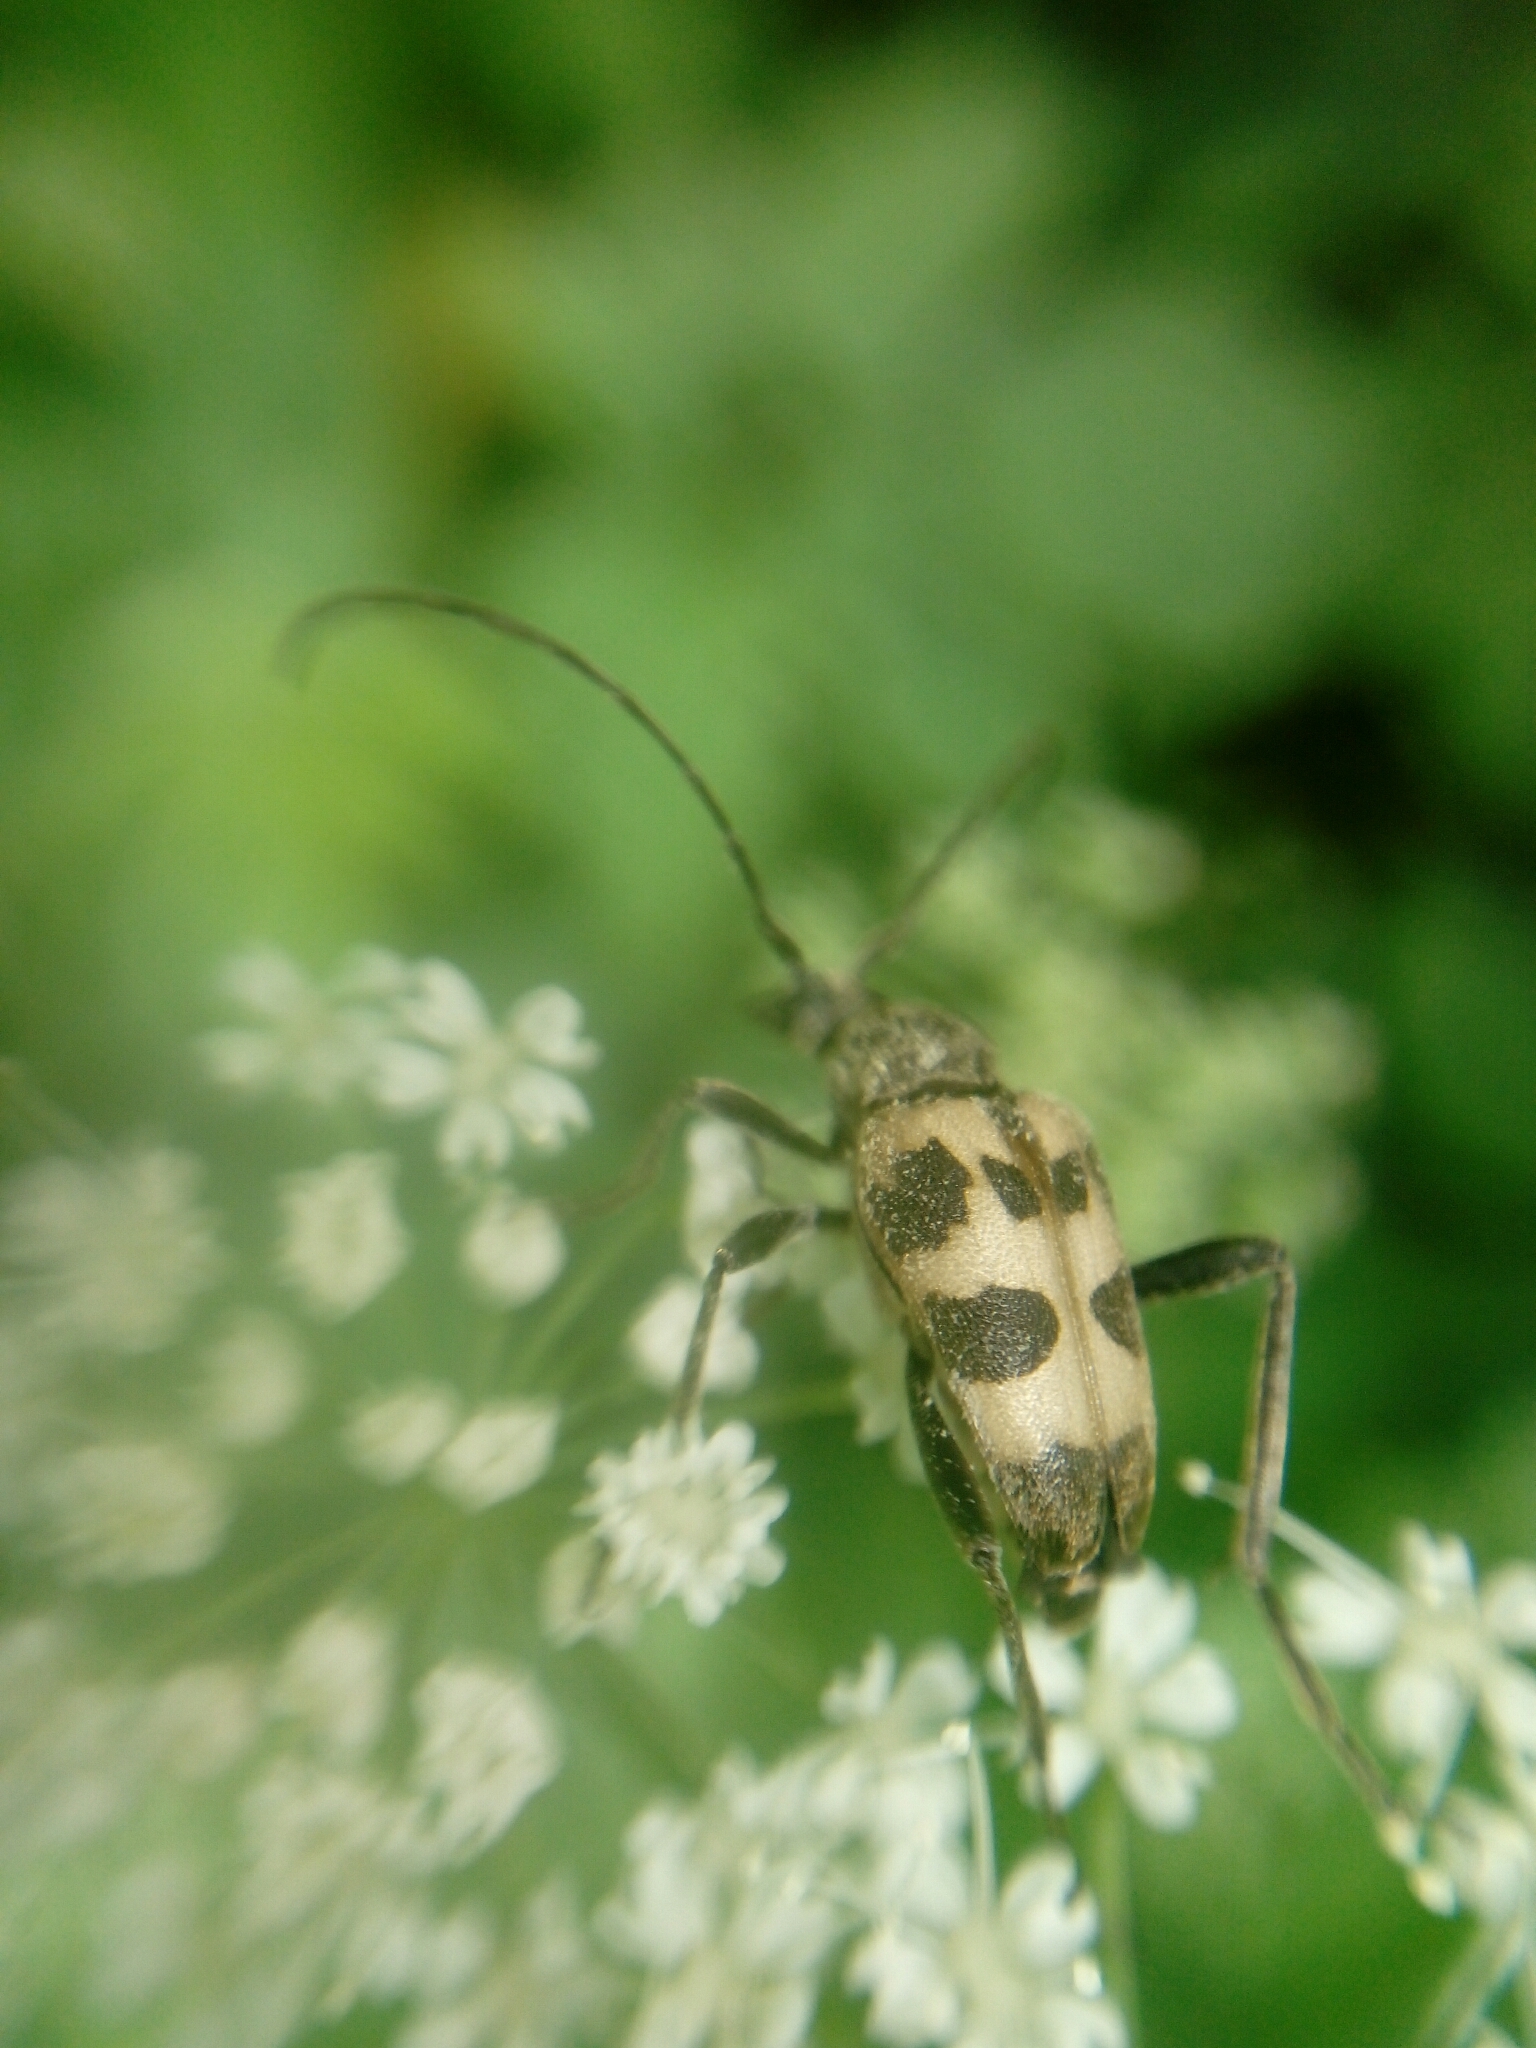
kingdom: Animalia
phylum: Arthropoda
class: Insecta
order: Coleoptera
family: Cerambycidae
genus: Pachytodes
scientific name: Pachytodes cerambyciformis
